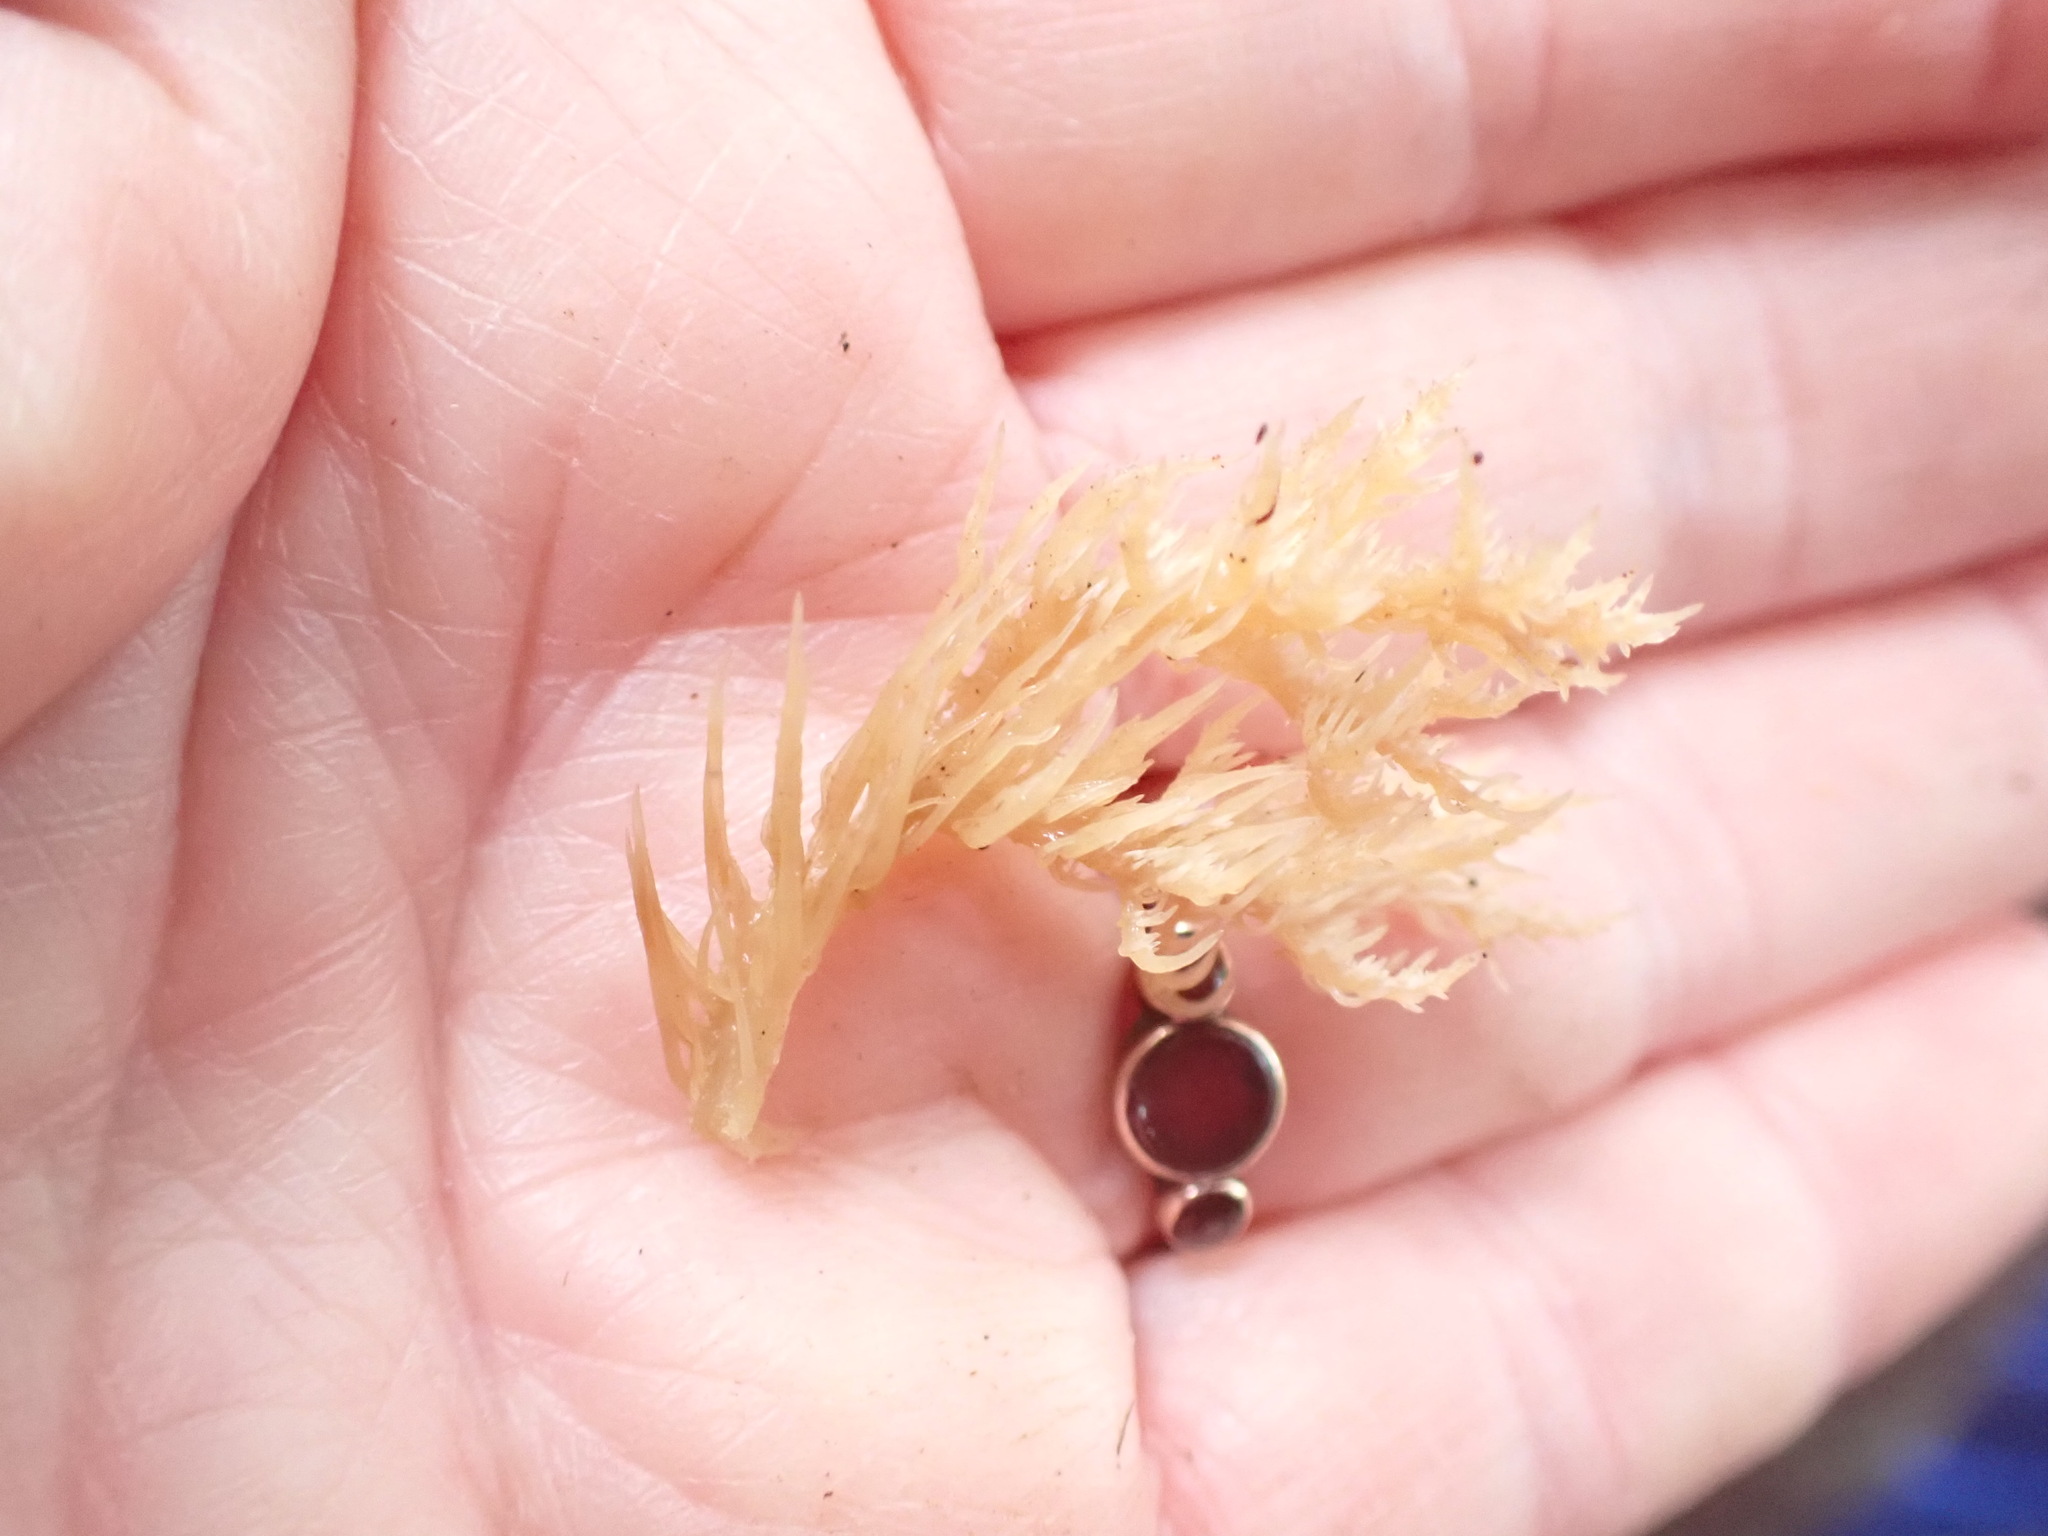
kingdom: Fungi
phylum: Basidiomycota
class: Agaricomycetes
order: Russulales
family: Hericiaceae
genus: Hericium
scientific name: Hericium novae-zealandiae
